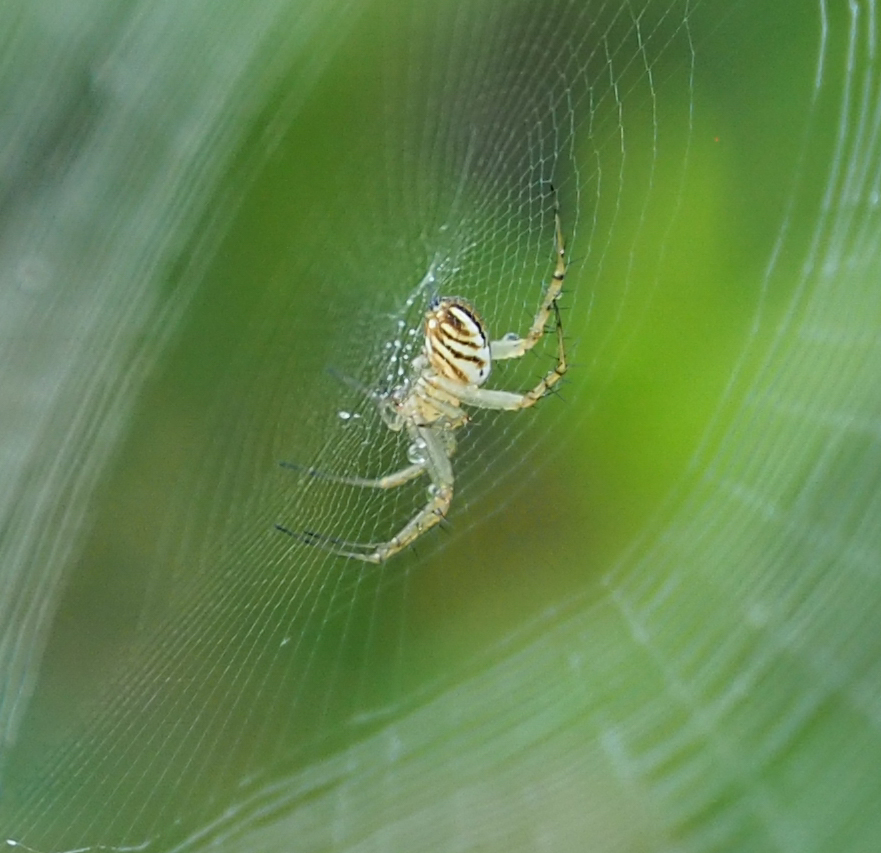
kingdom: Animalia
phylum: Arthropoda
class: Arachnida
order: Araneae
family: Araneidae
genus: Mangora
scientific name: Mangora gibberosa
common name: Lined orbweaver
